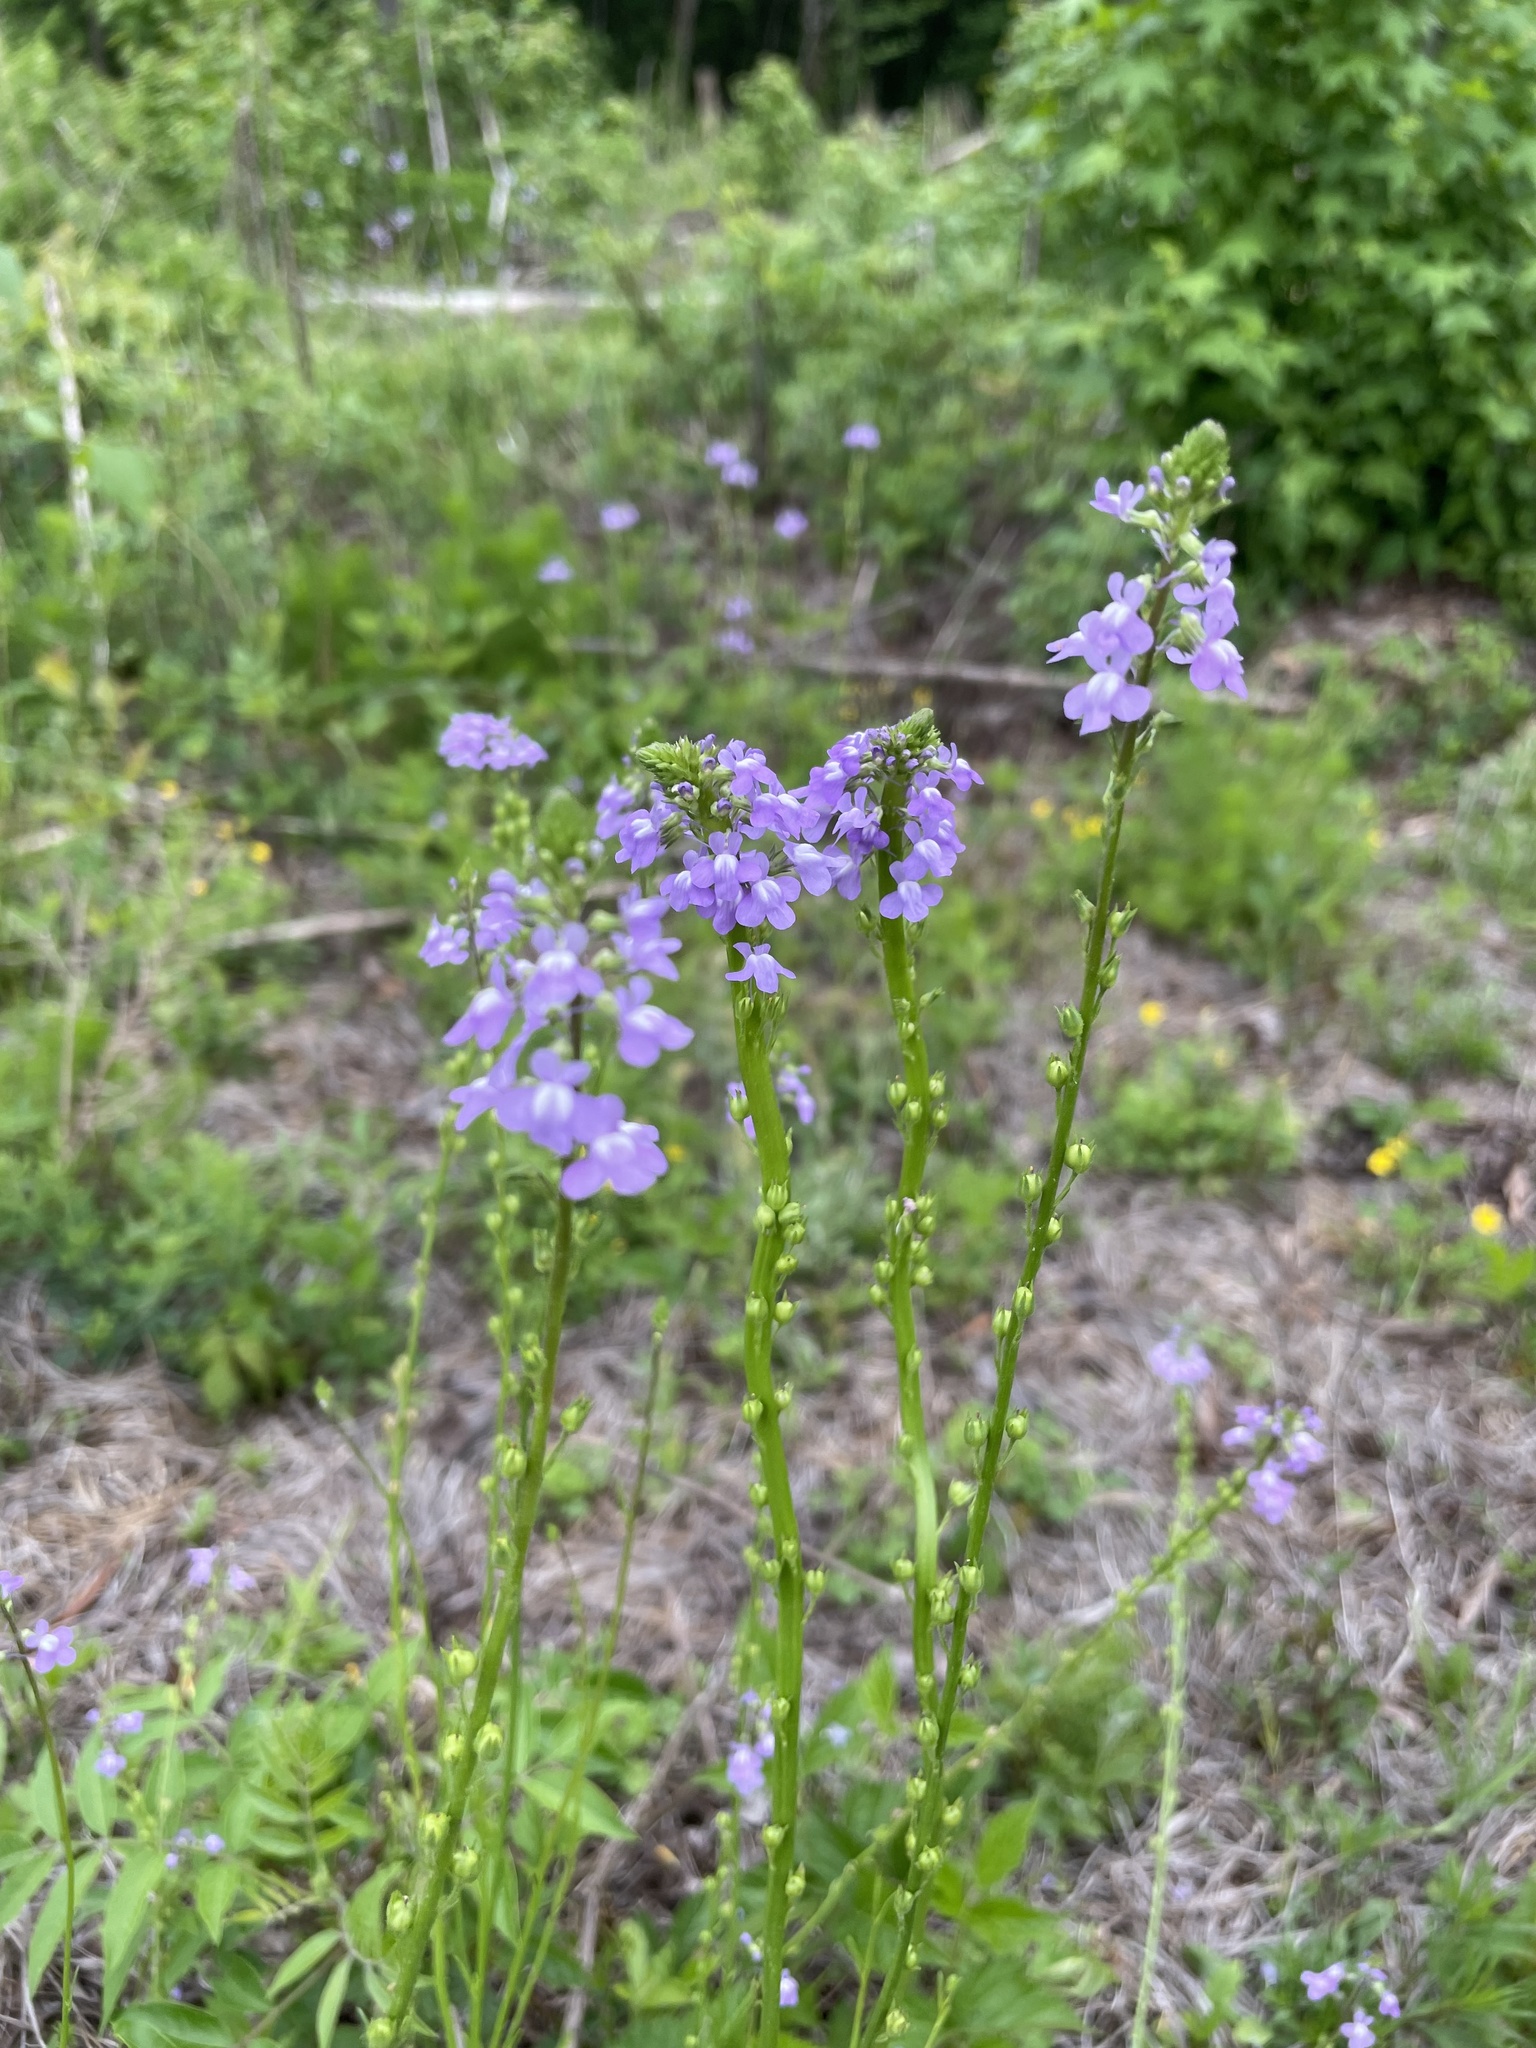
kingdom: Plantae
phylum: Tracheophyta
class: Magnoliopsida
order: Lamiales
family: Plantaginaceae
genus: Nuttallanthus
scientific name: Nuttallanthus canadensis
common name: Blue toadflax
